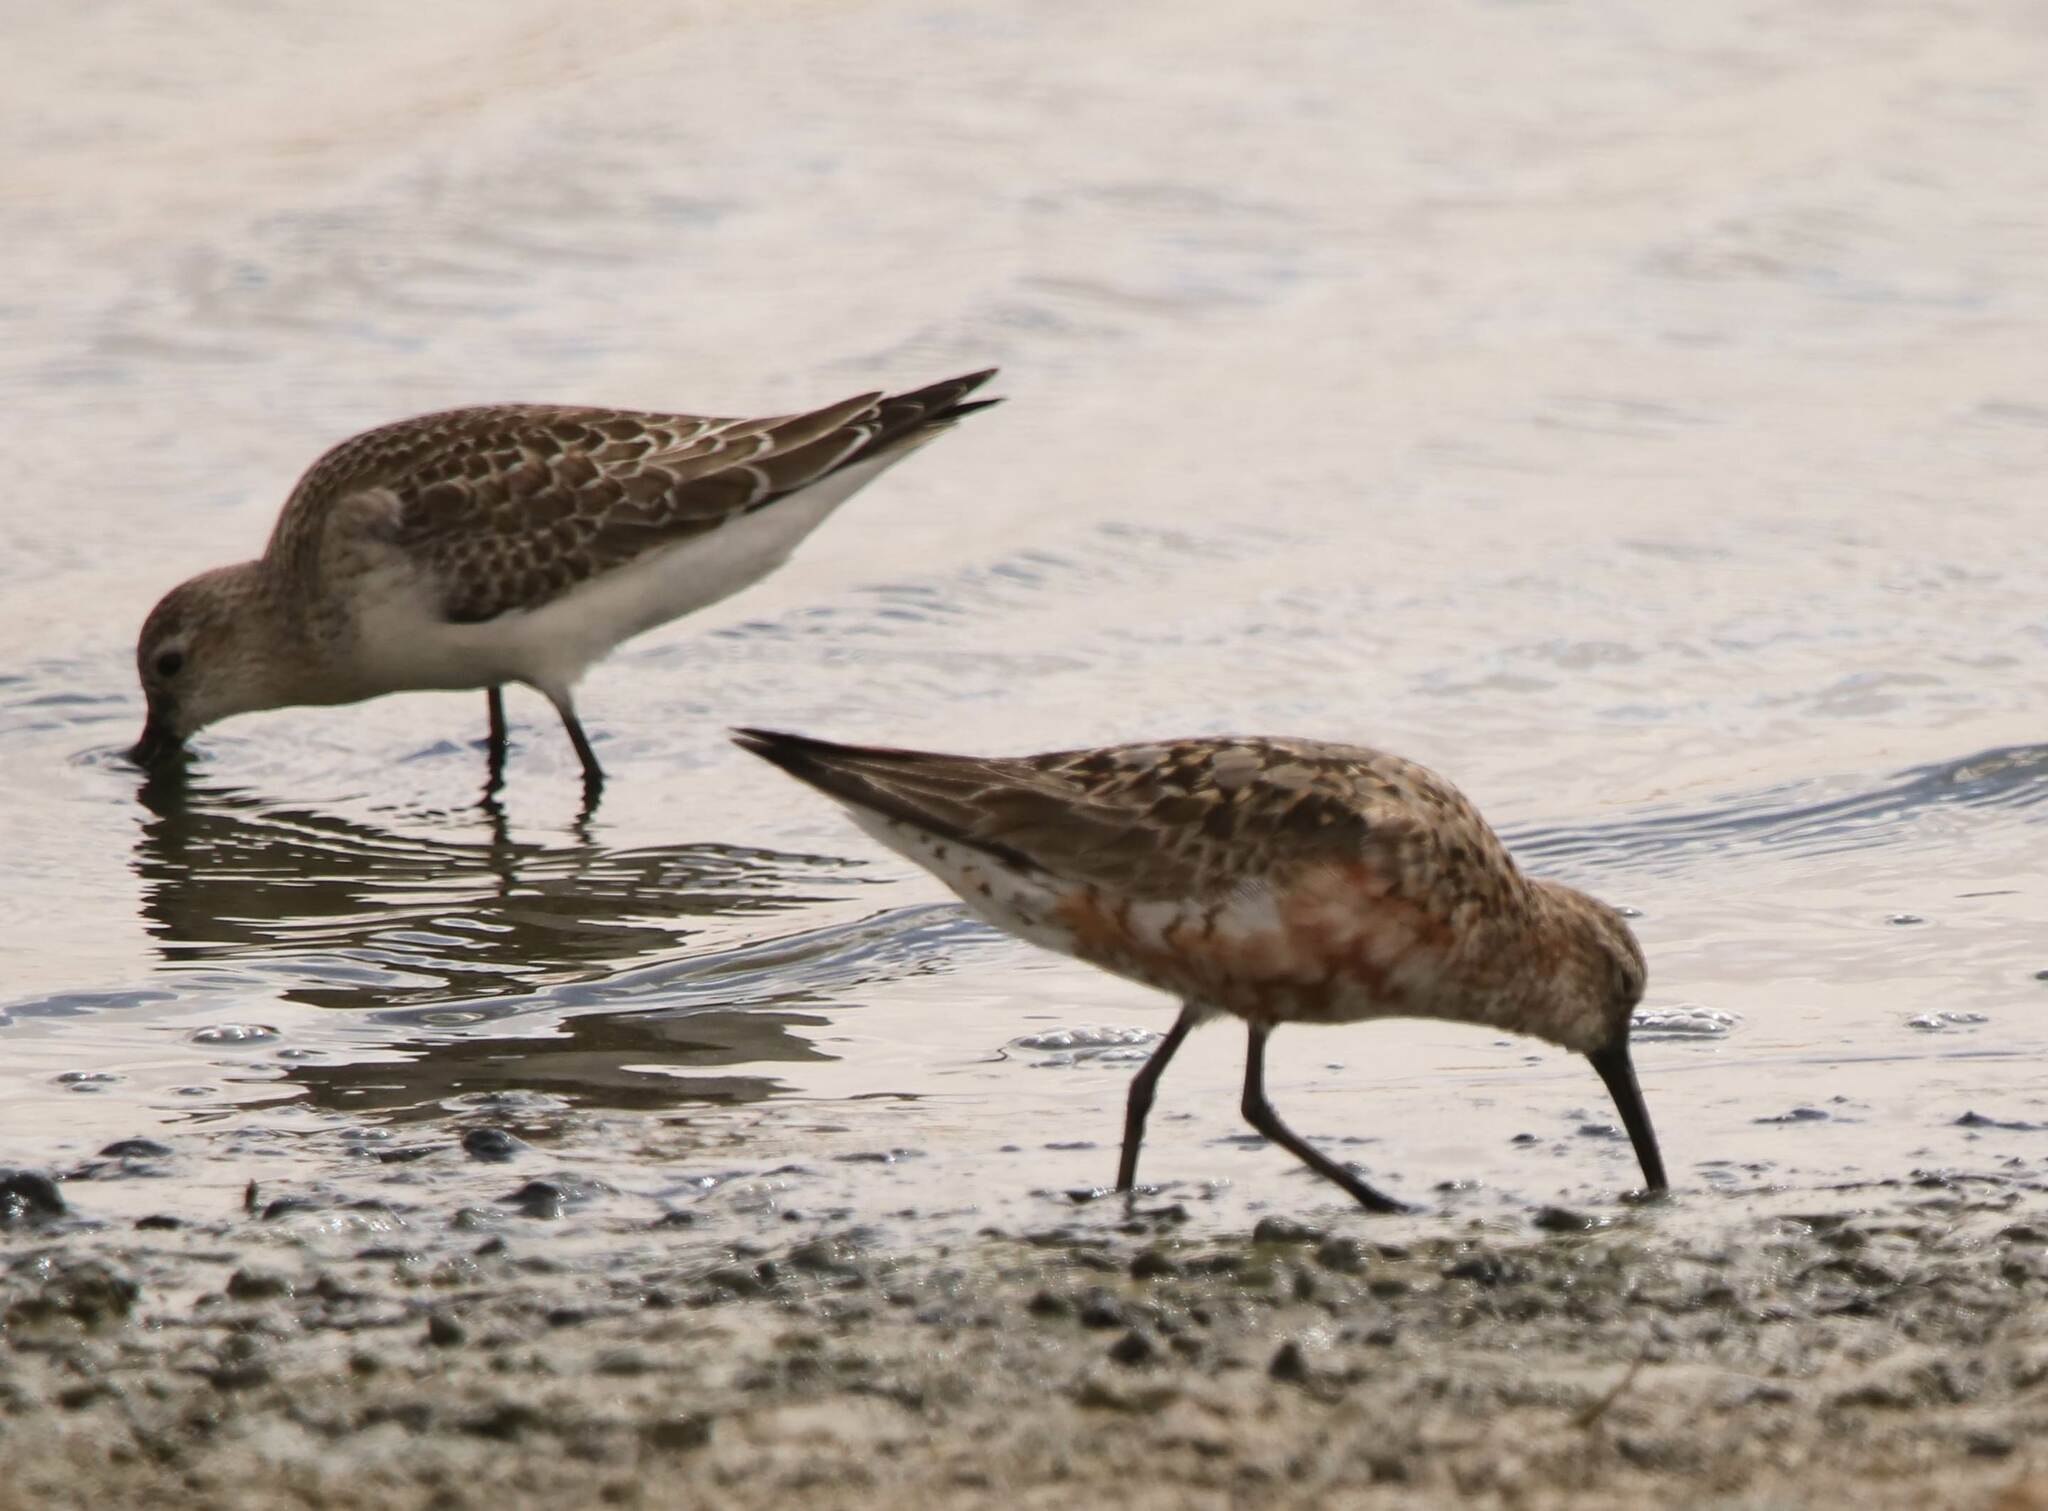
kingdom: Animalia
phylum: Chordata
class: Aves
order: Charadriiformes
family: Scolopacidae
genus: Calidris
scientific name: Calidris ferruginea
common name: Curlew sandpiper
